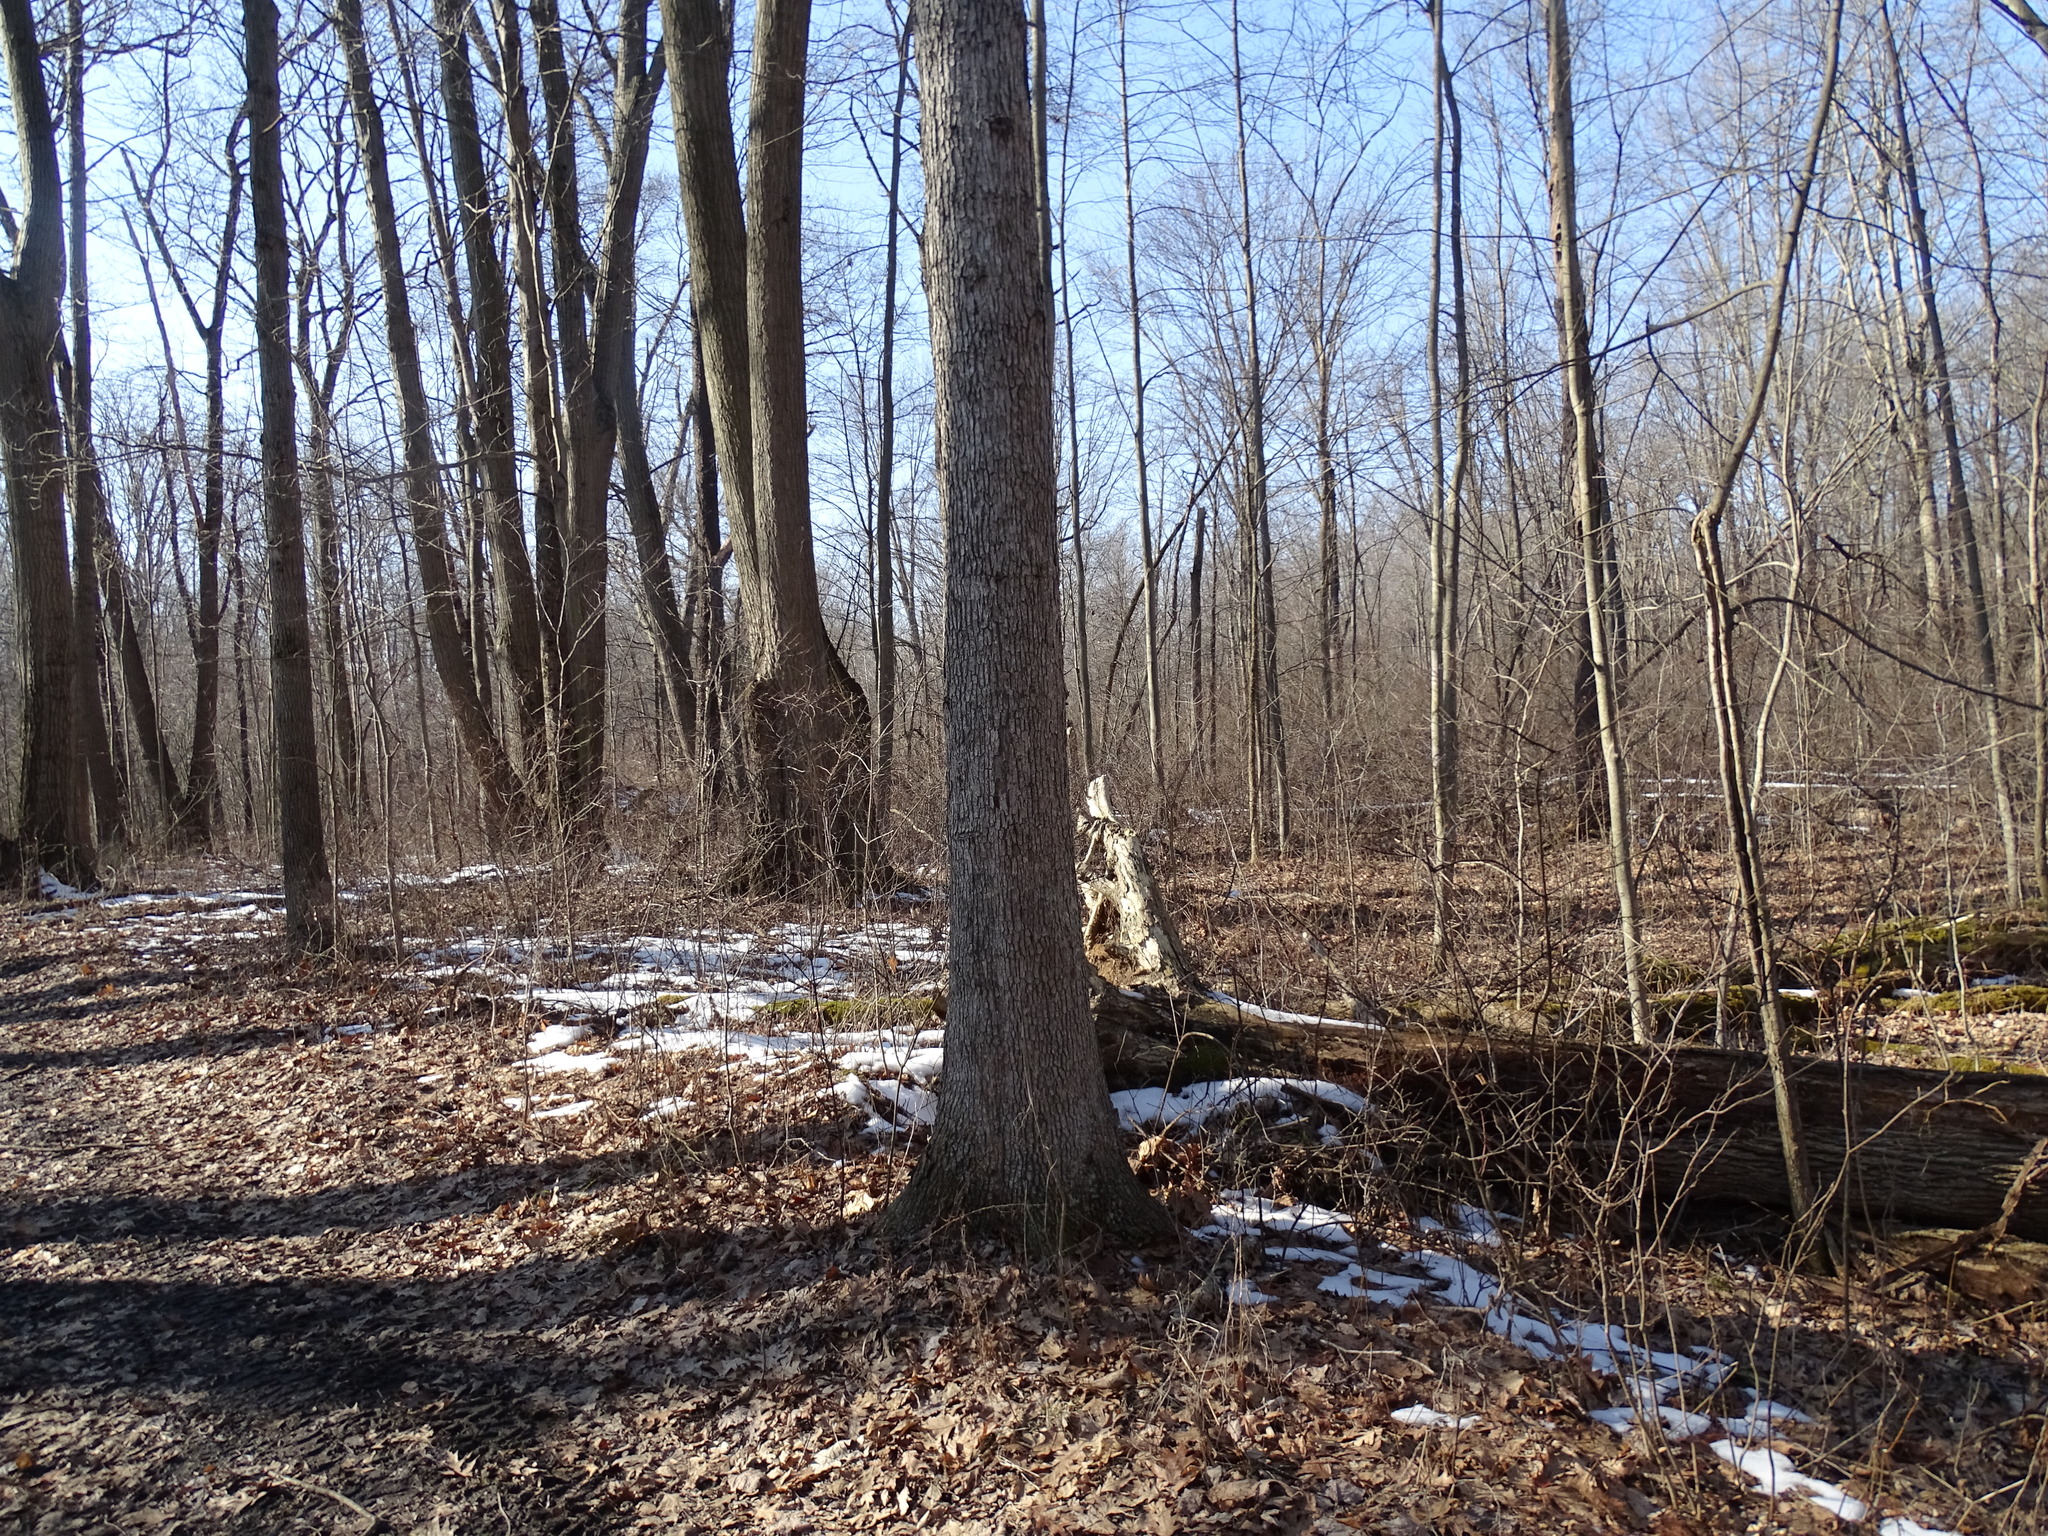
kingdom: Plantae
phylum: Tracheophyta
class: Magnoliopsida
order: Fagales
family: Fagaceae
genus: Quercus
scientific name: Quercus alba
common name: White oak
